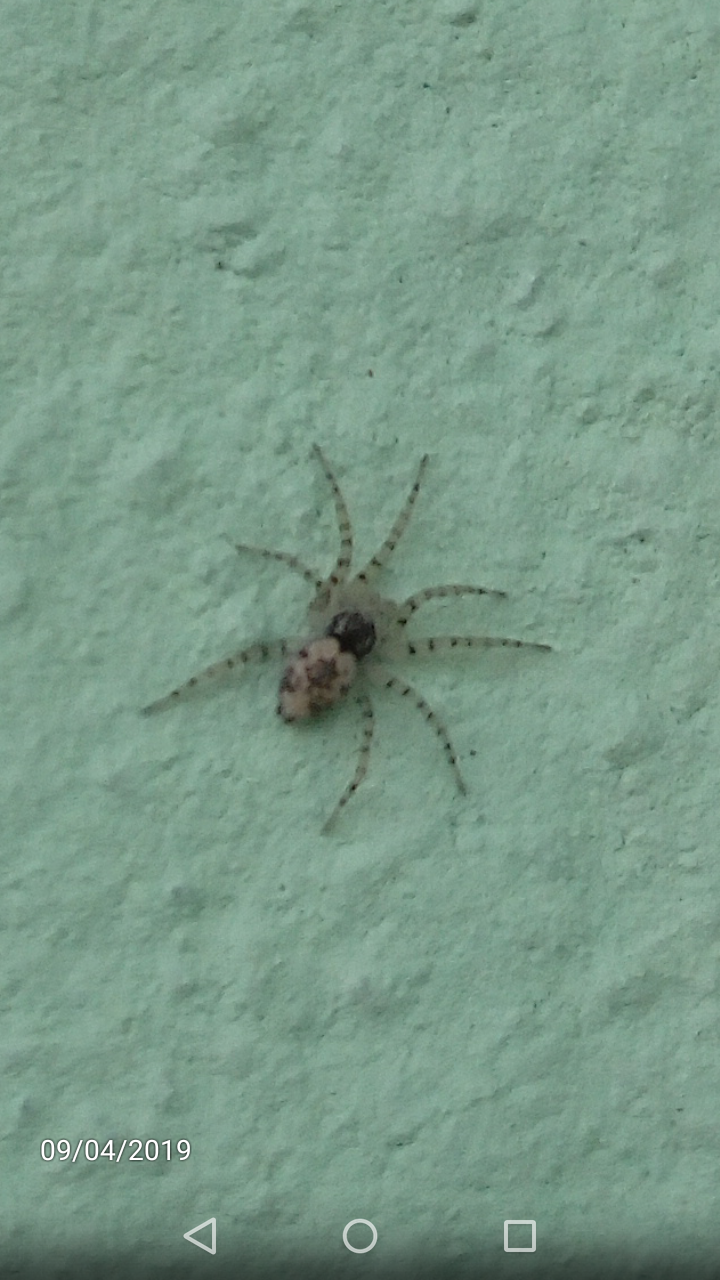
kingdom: Animalia
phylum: Arthropoda
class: Arachnida
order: Araneae
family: Oecobiidae
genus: Oecobius
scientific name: Oecobius maculatus
